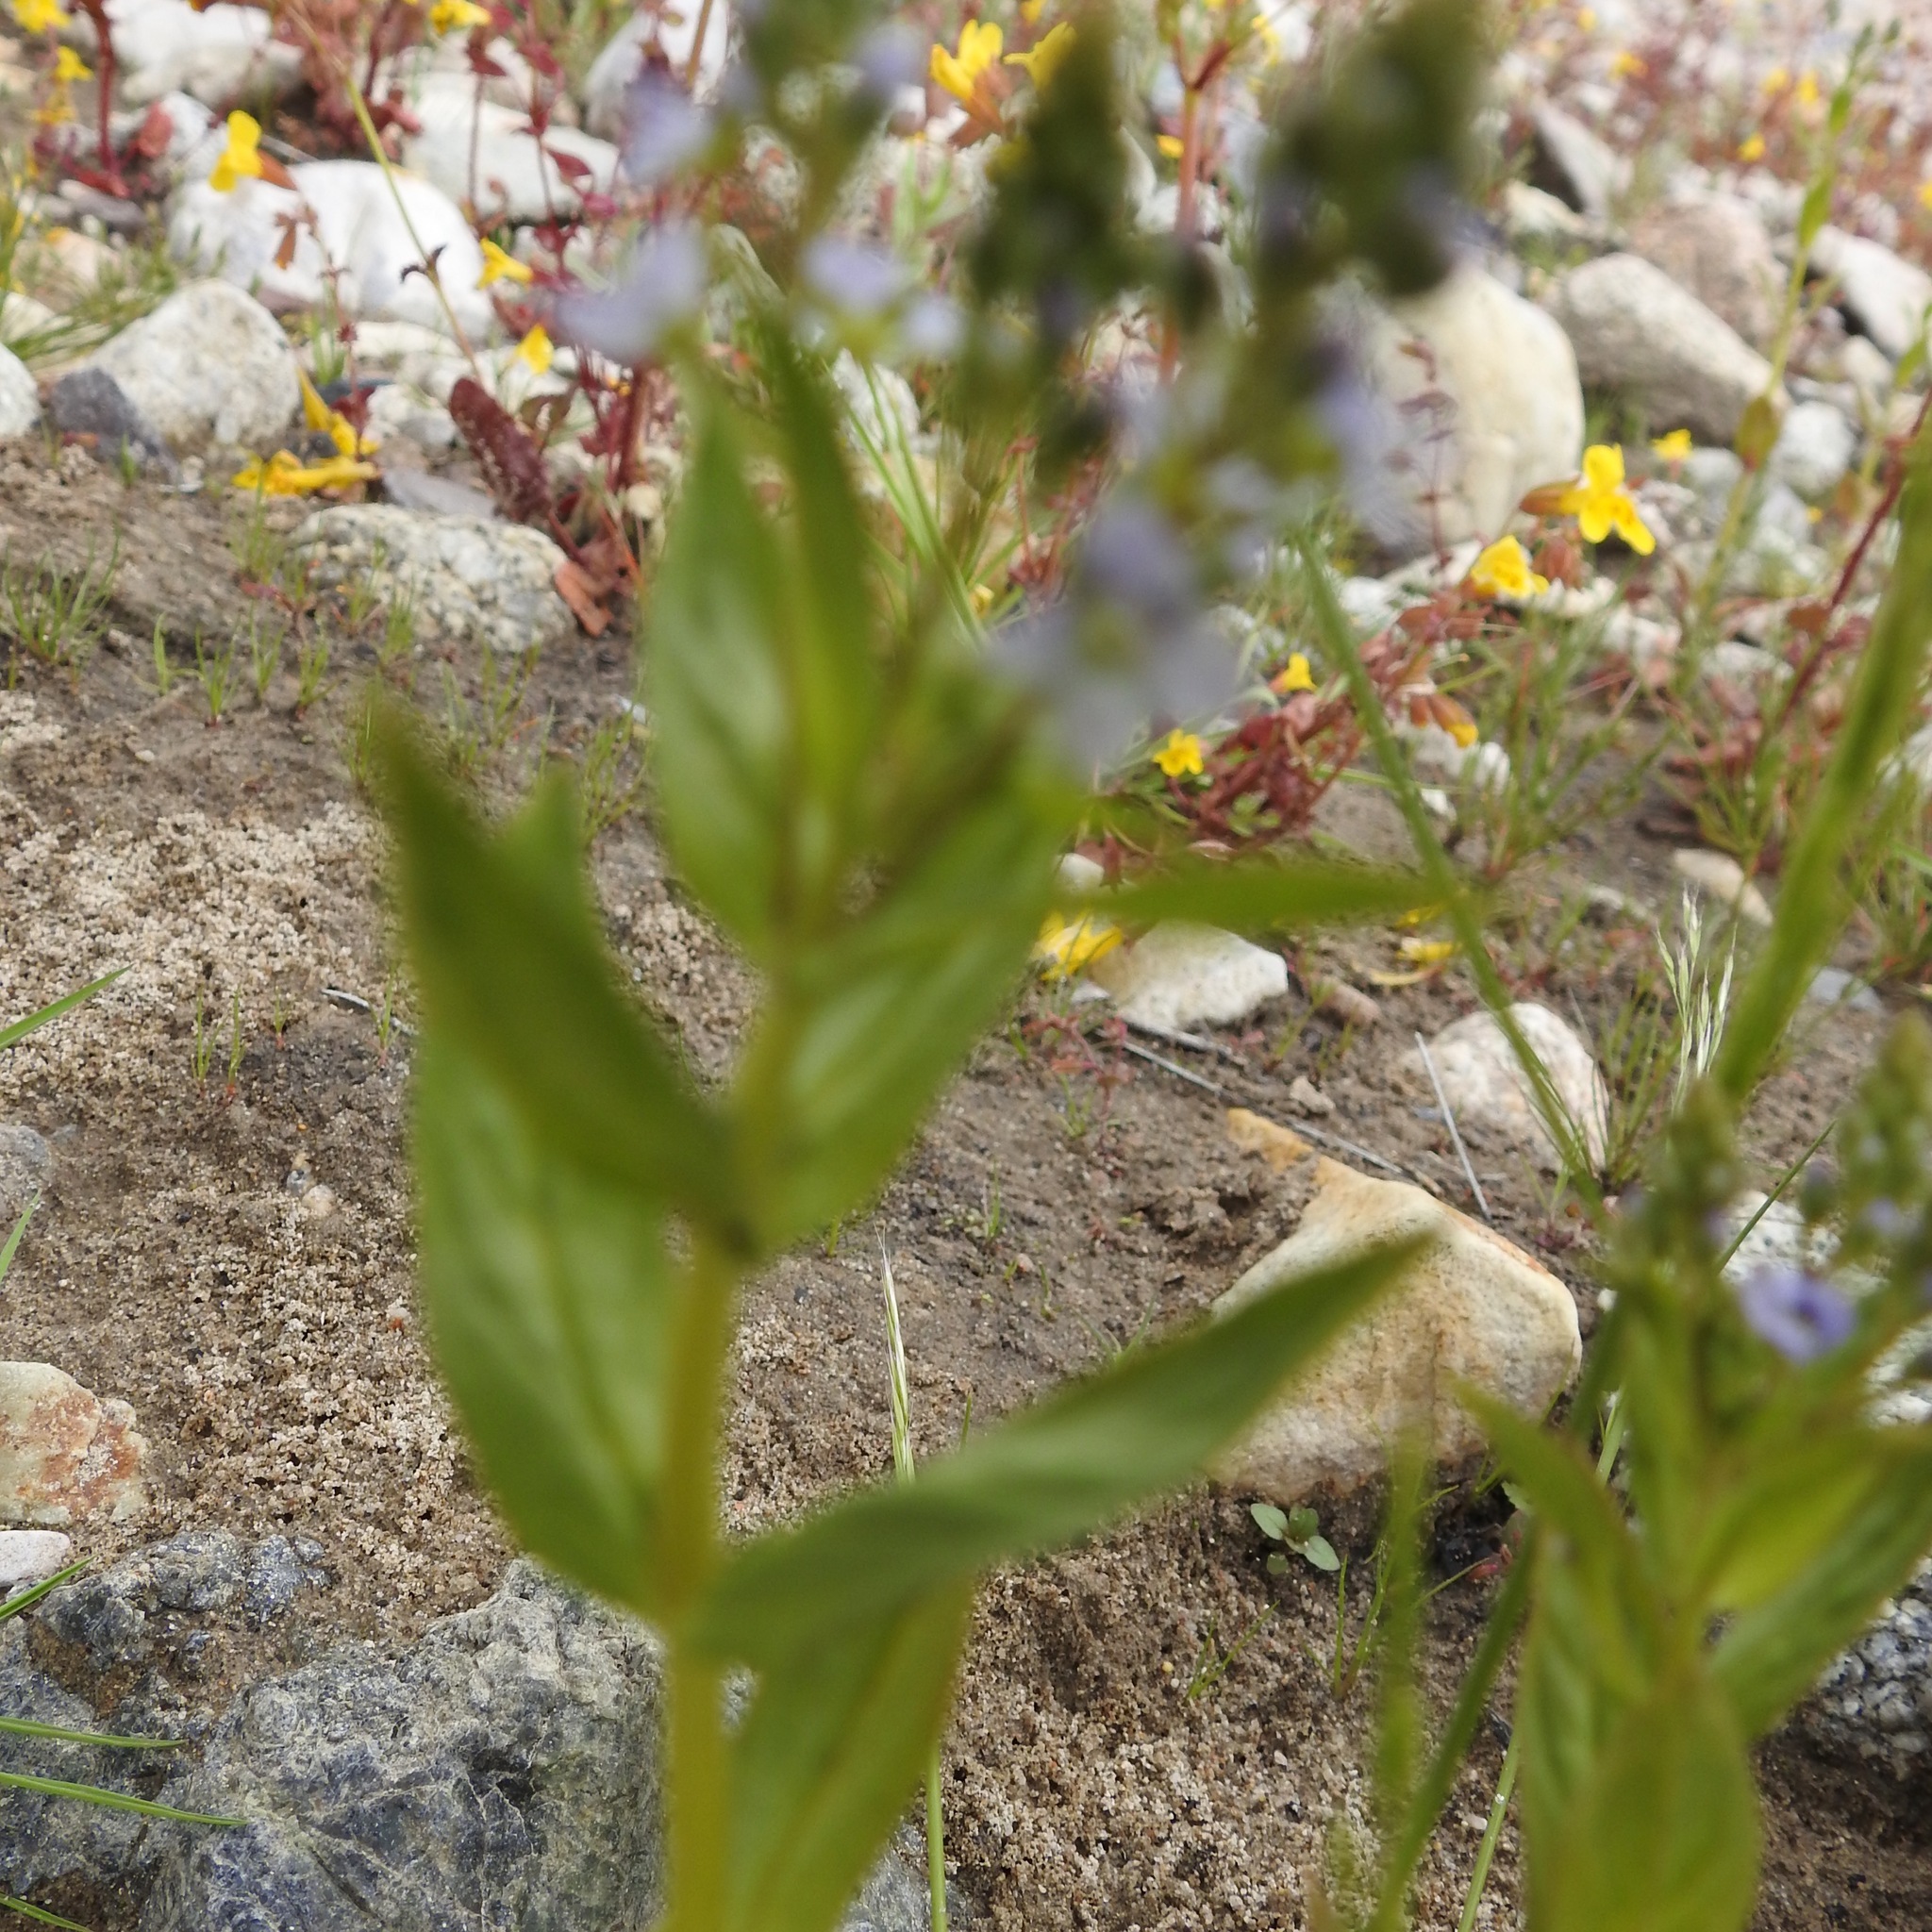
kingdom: Plantae
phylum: Tracheophyta
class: Magnoliopsida
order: Lamiales
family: Plantaginaceae
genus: Veronica
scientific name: Veronica anagallis-aquatica
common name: Water speedwell
